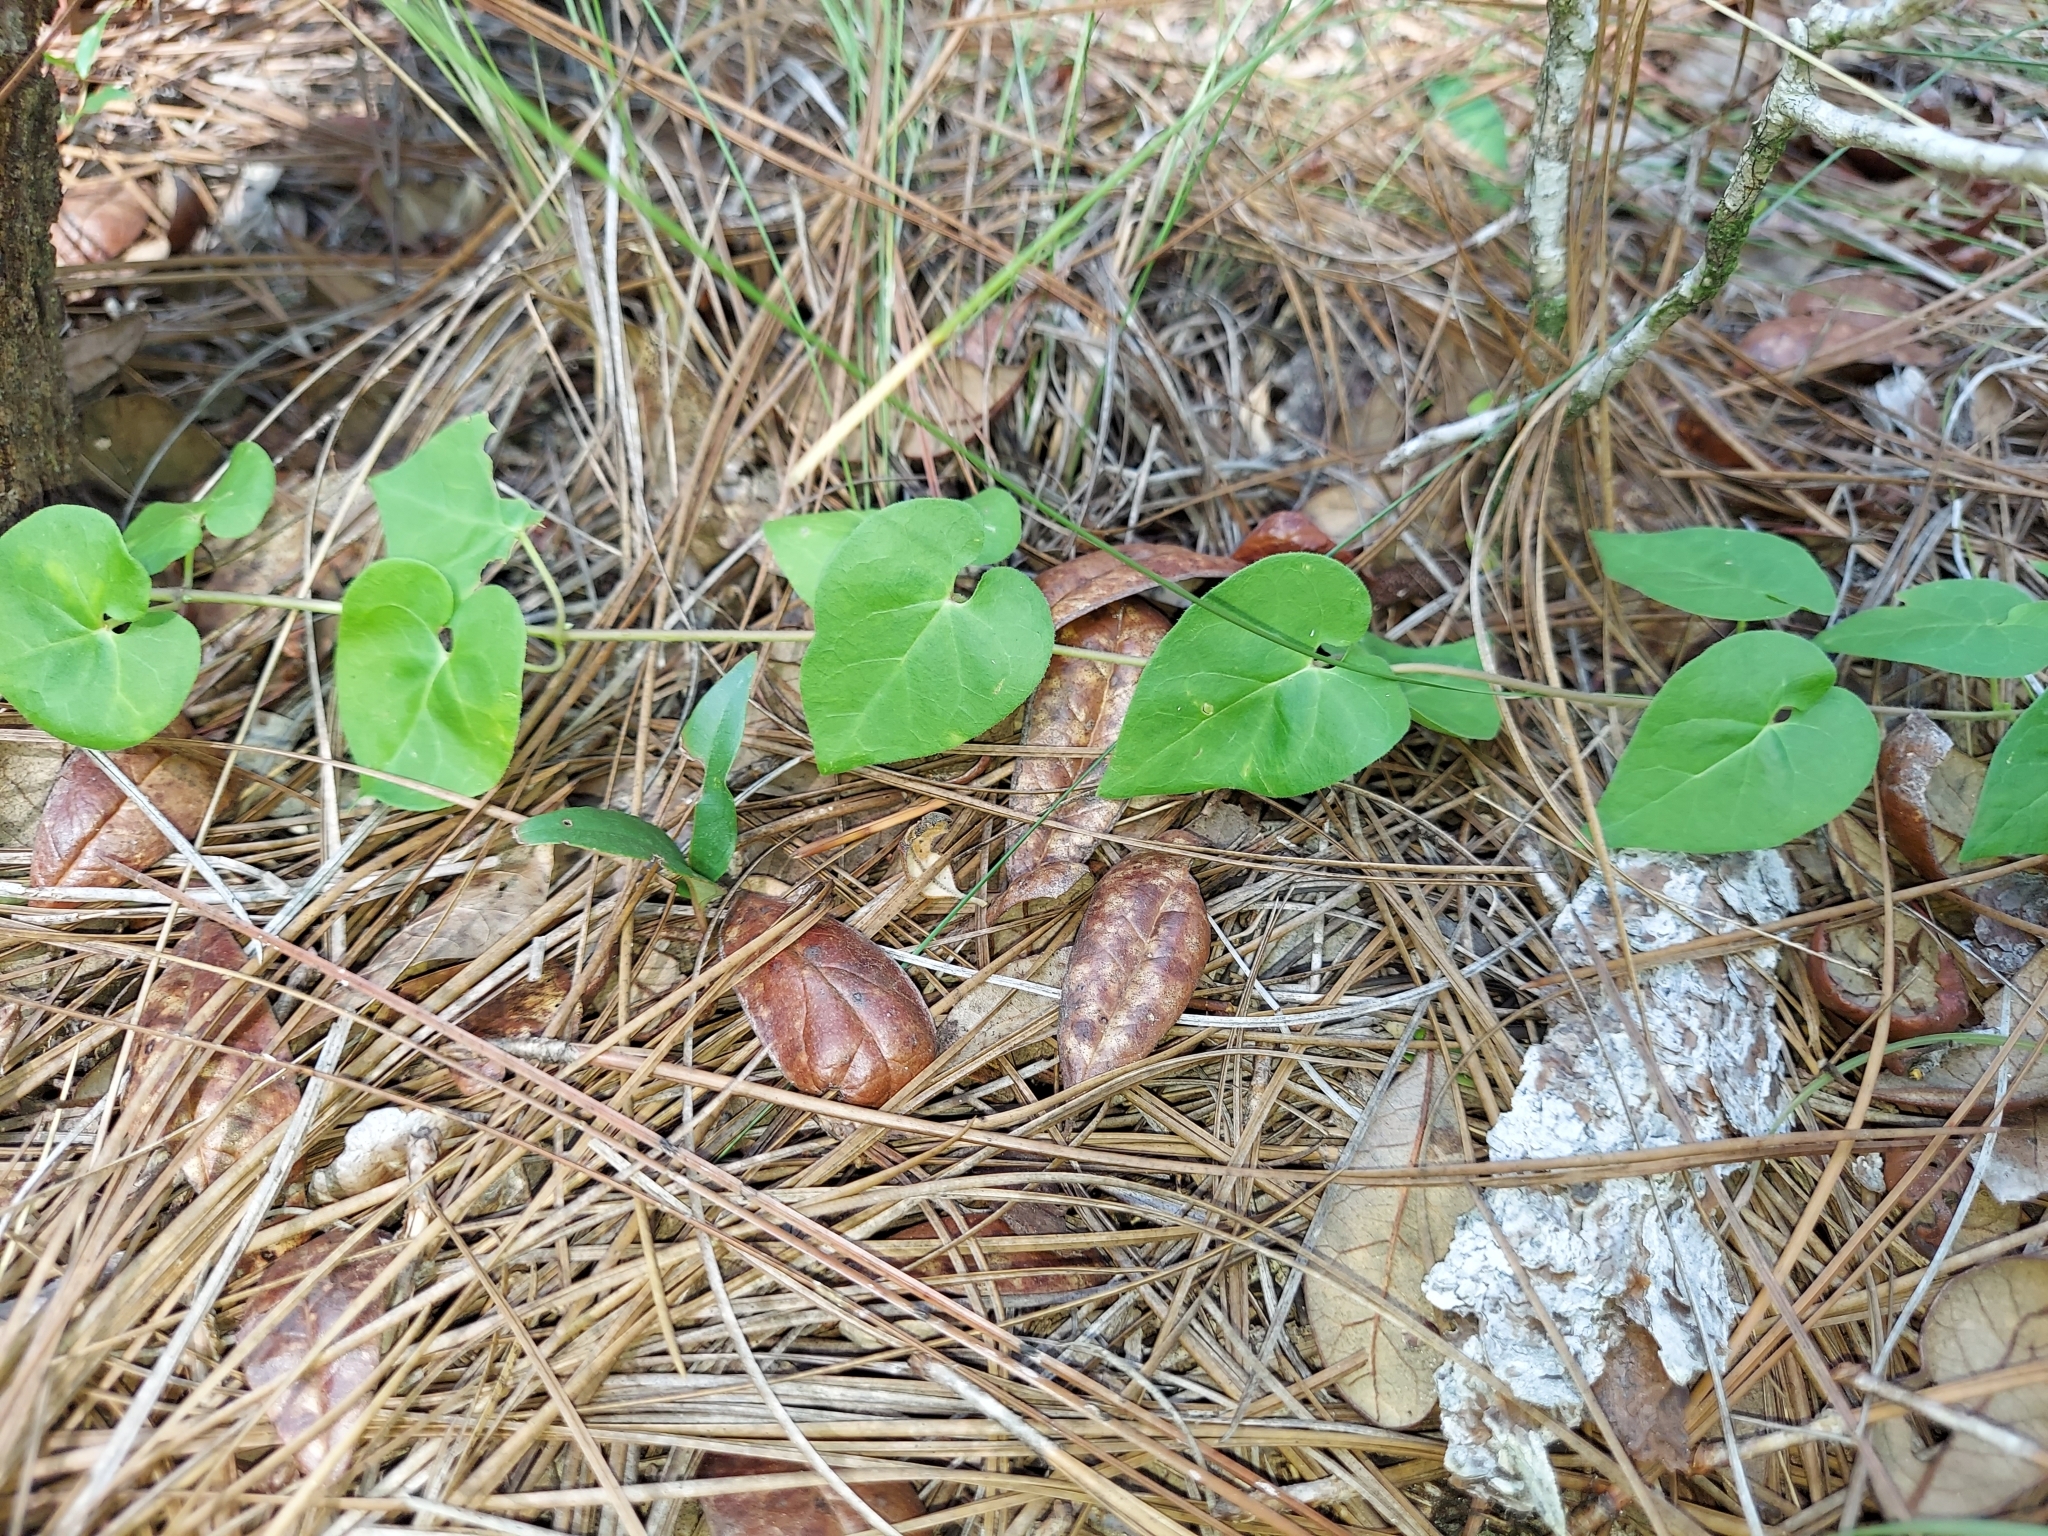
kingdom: Plantae
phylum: Tracheophyta
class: Magnoliopsida
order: Gentianales
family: Apocynaceae
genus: Chthamalia
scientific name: Chthamalia pubiflora
